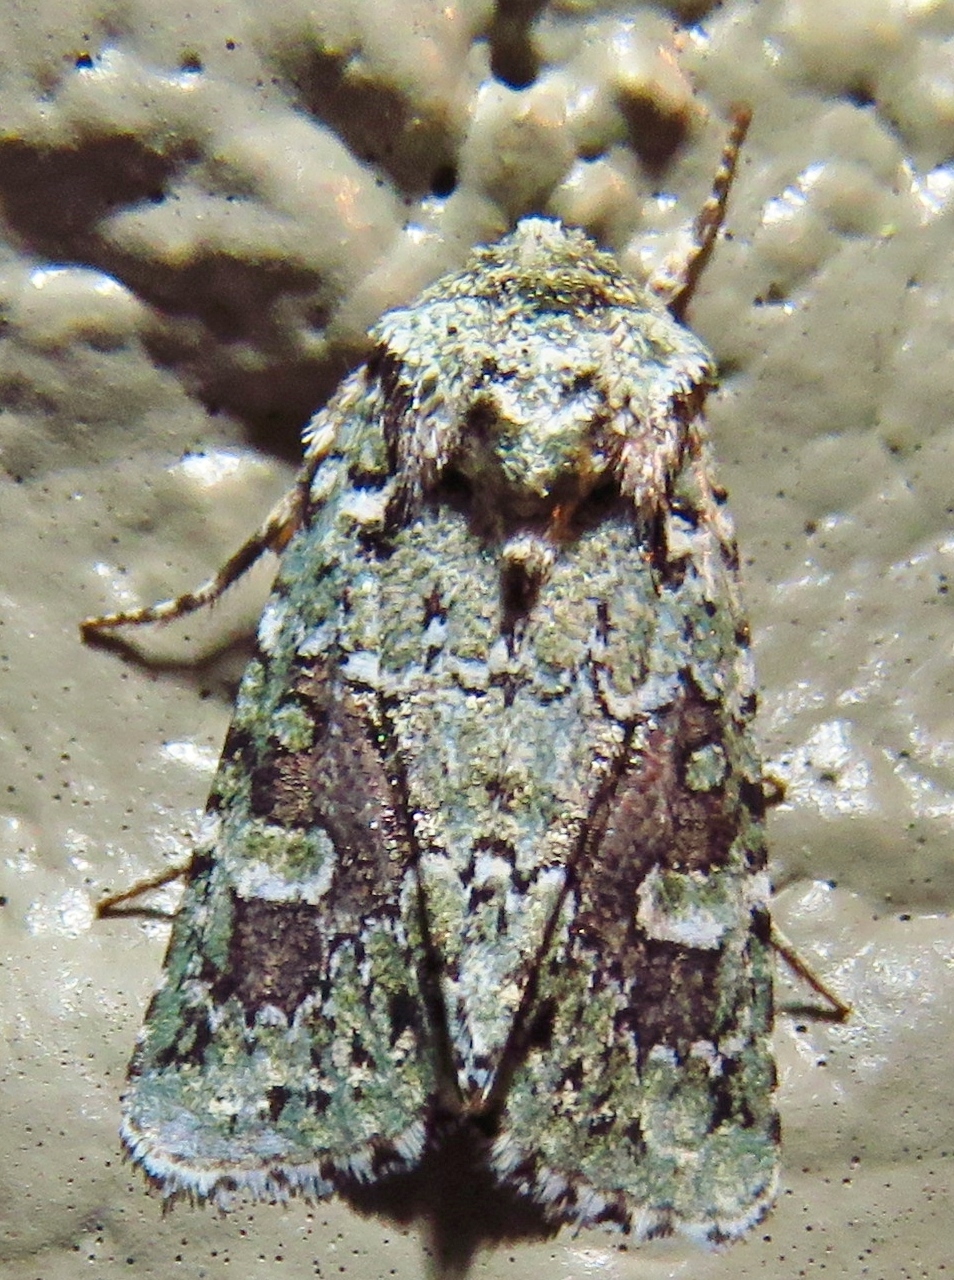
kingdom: Animalia
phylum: Arthropoda
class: Insecta
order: Lepidoptera
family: Noctuidae
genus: Lacinipolia
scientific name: Lacinipolia laudabilis
